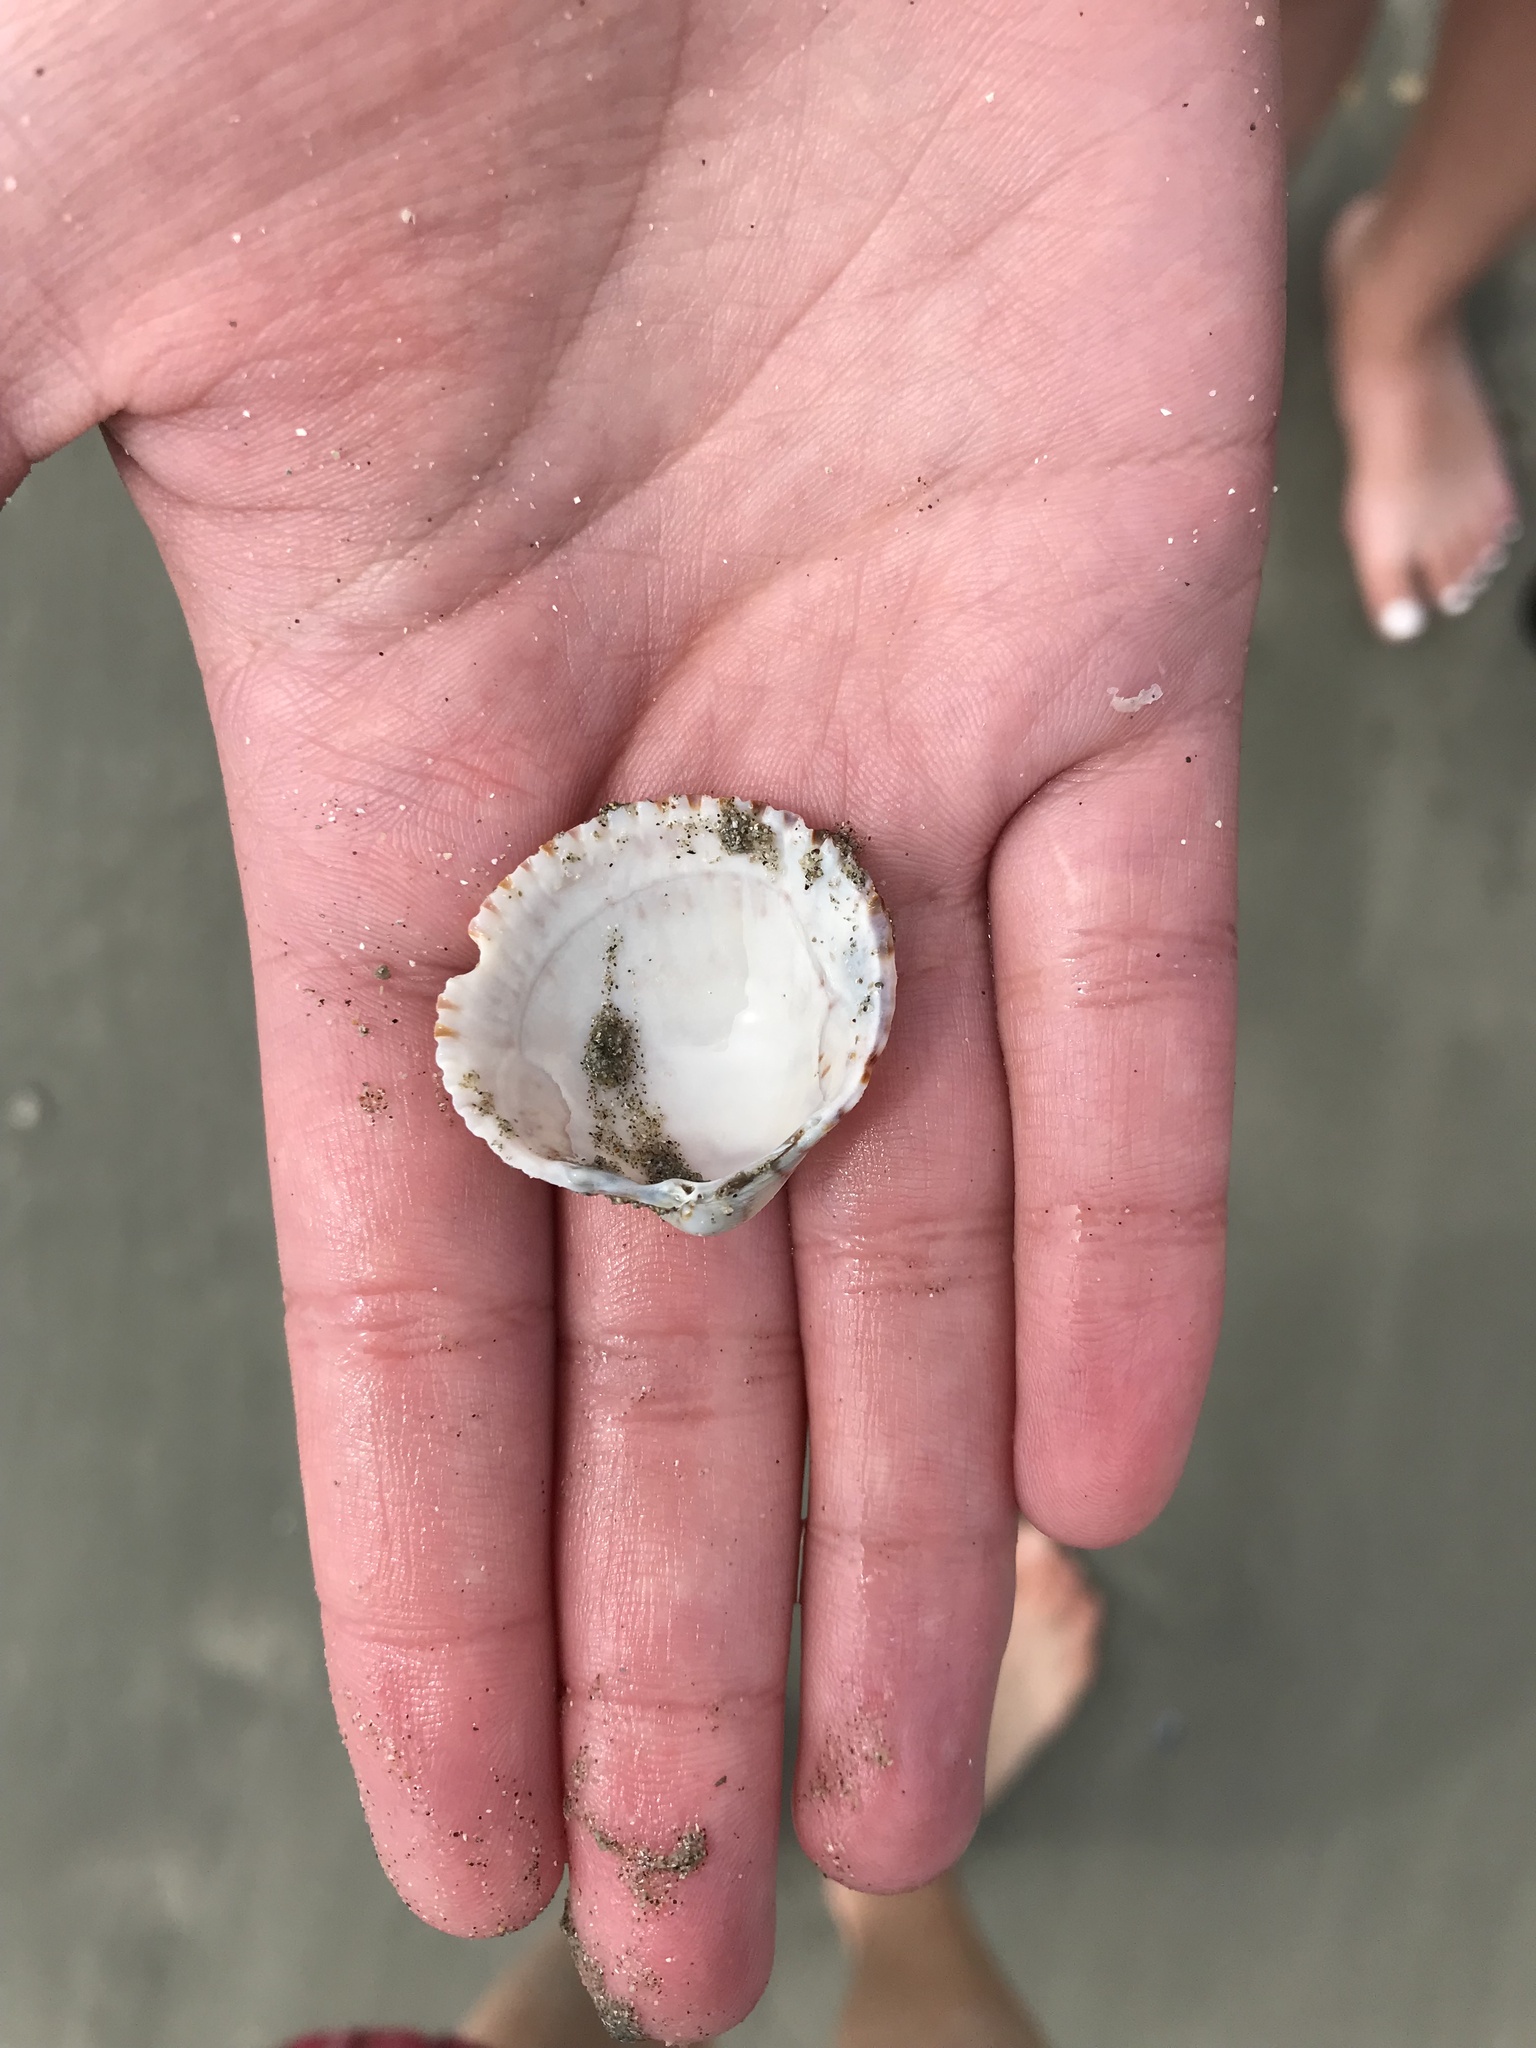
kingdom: Animalia
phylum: Mollusca
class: Bivalvia
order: Cardiida
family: Cardiidae
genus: Clinocardium
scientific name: Clinocardium nuttallii
